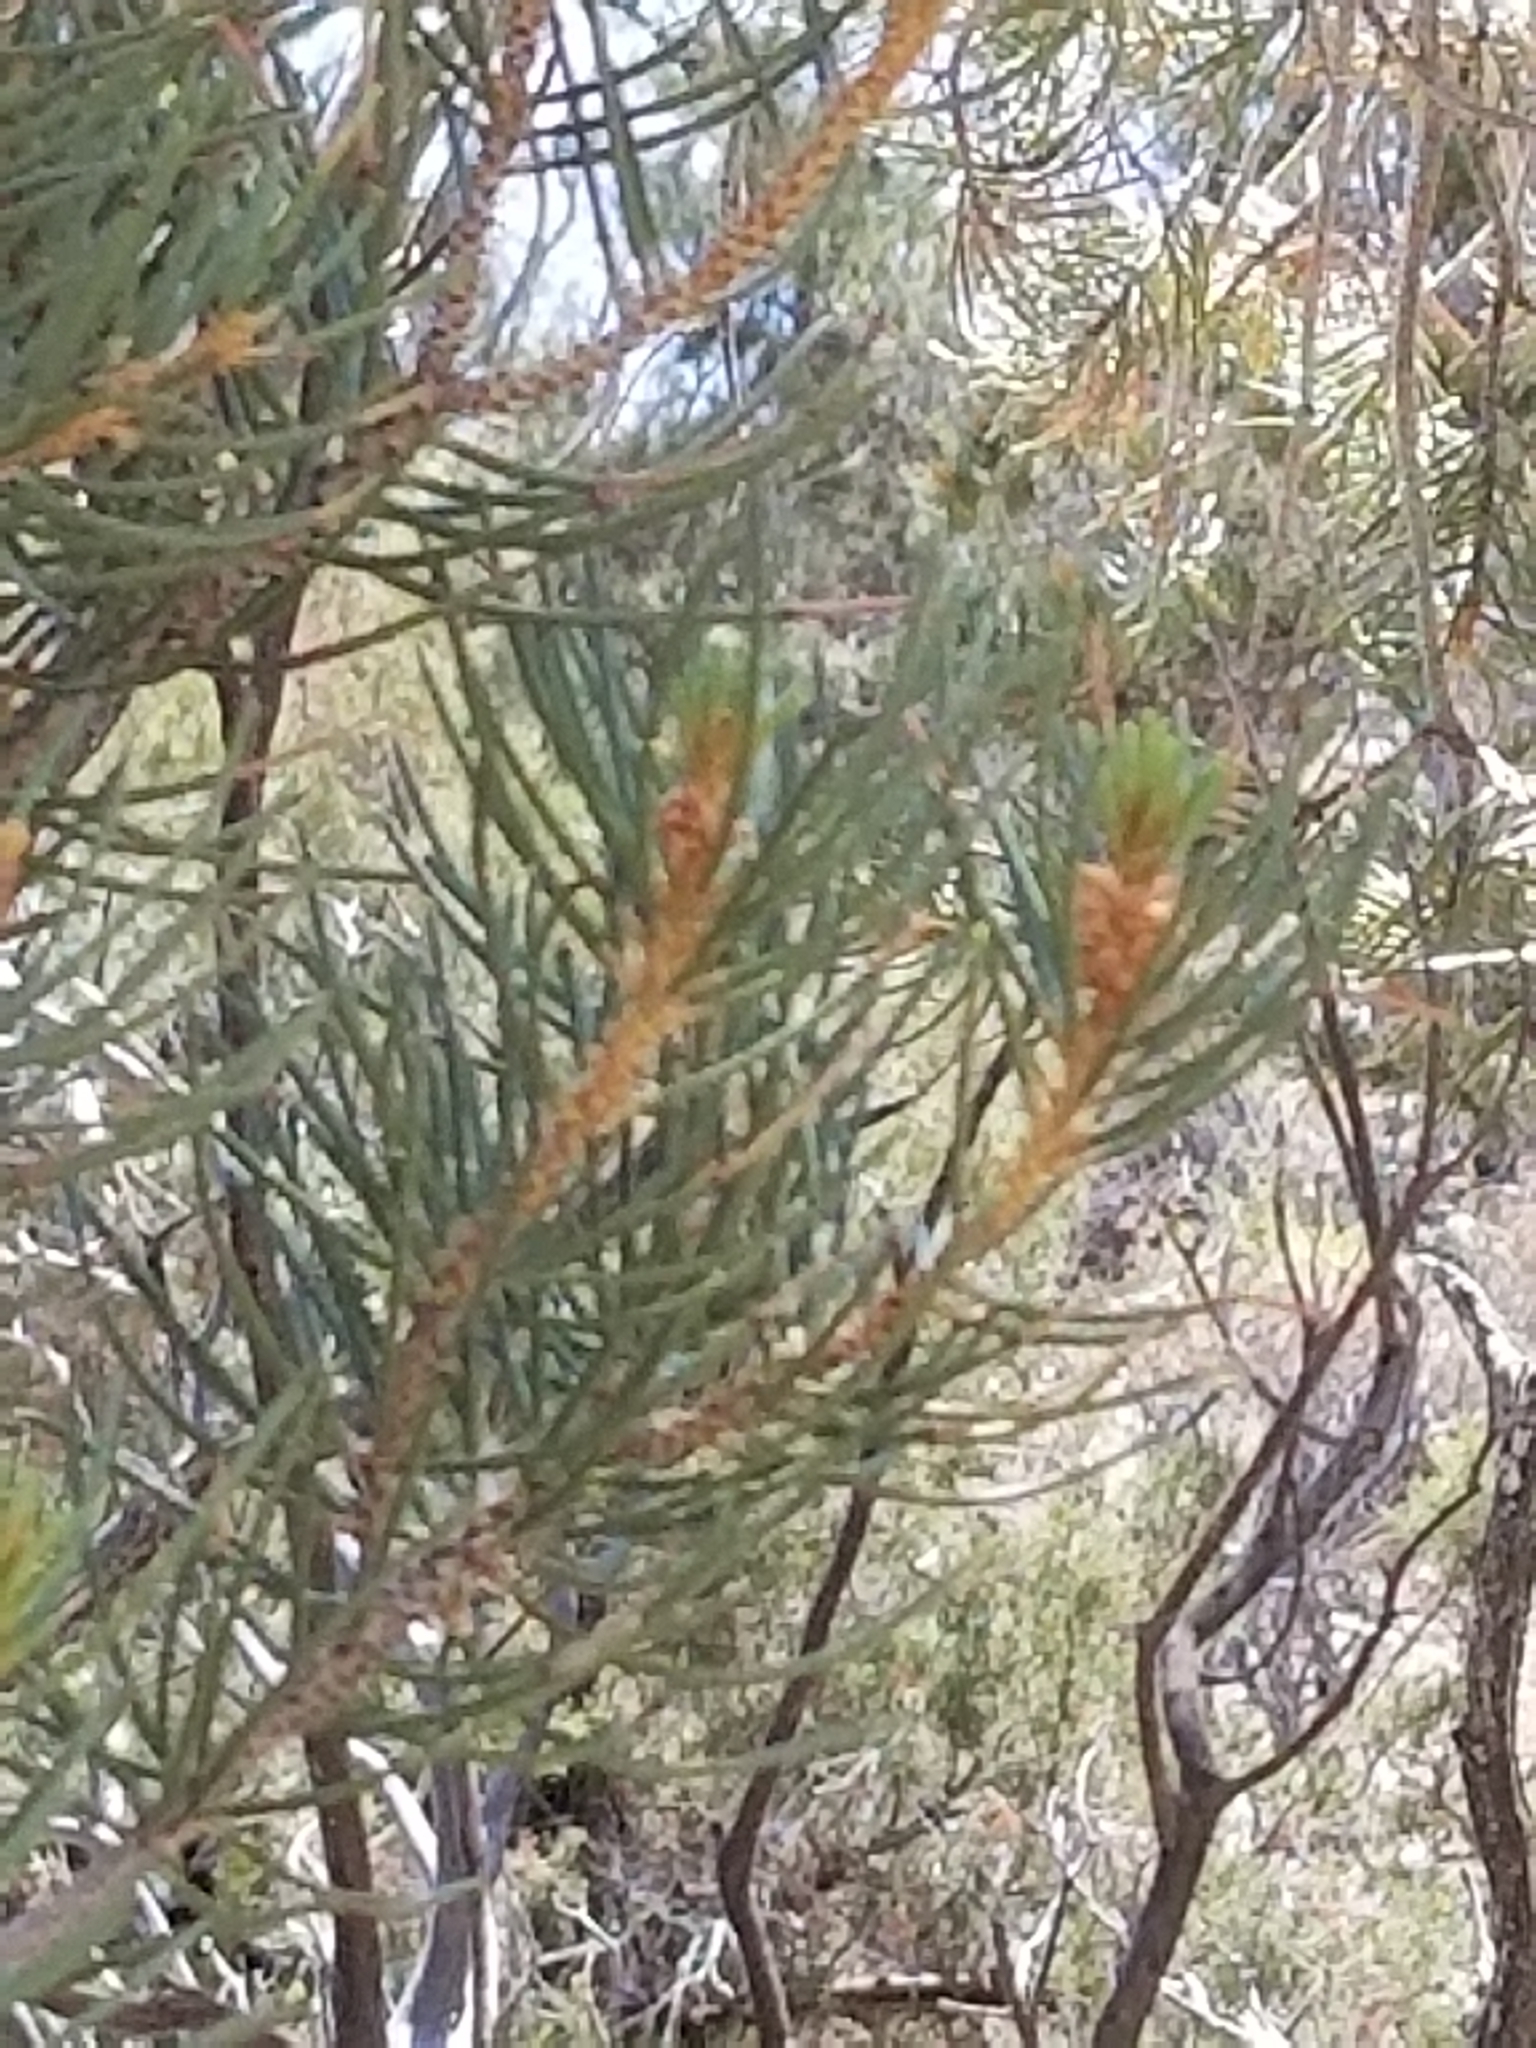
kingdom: Plantae
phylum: Tracheophyta
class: Pinopsida
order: Pinales
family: Pinaceae
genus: Pinus
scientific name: Pinus monophylla
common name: One-leaved nut pine
